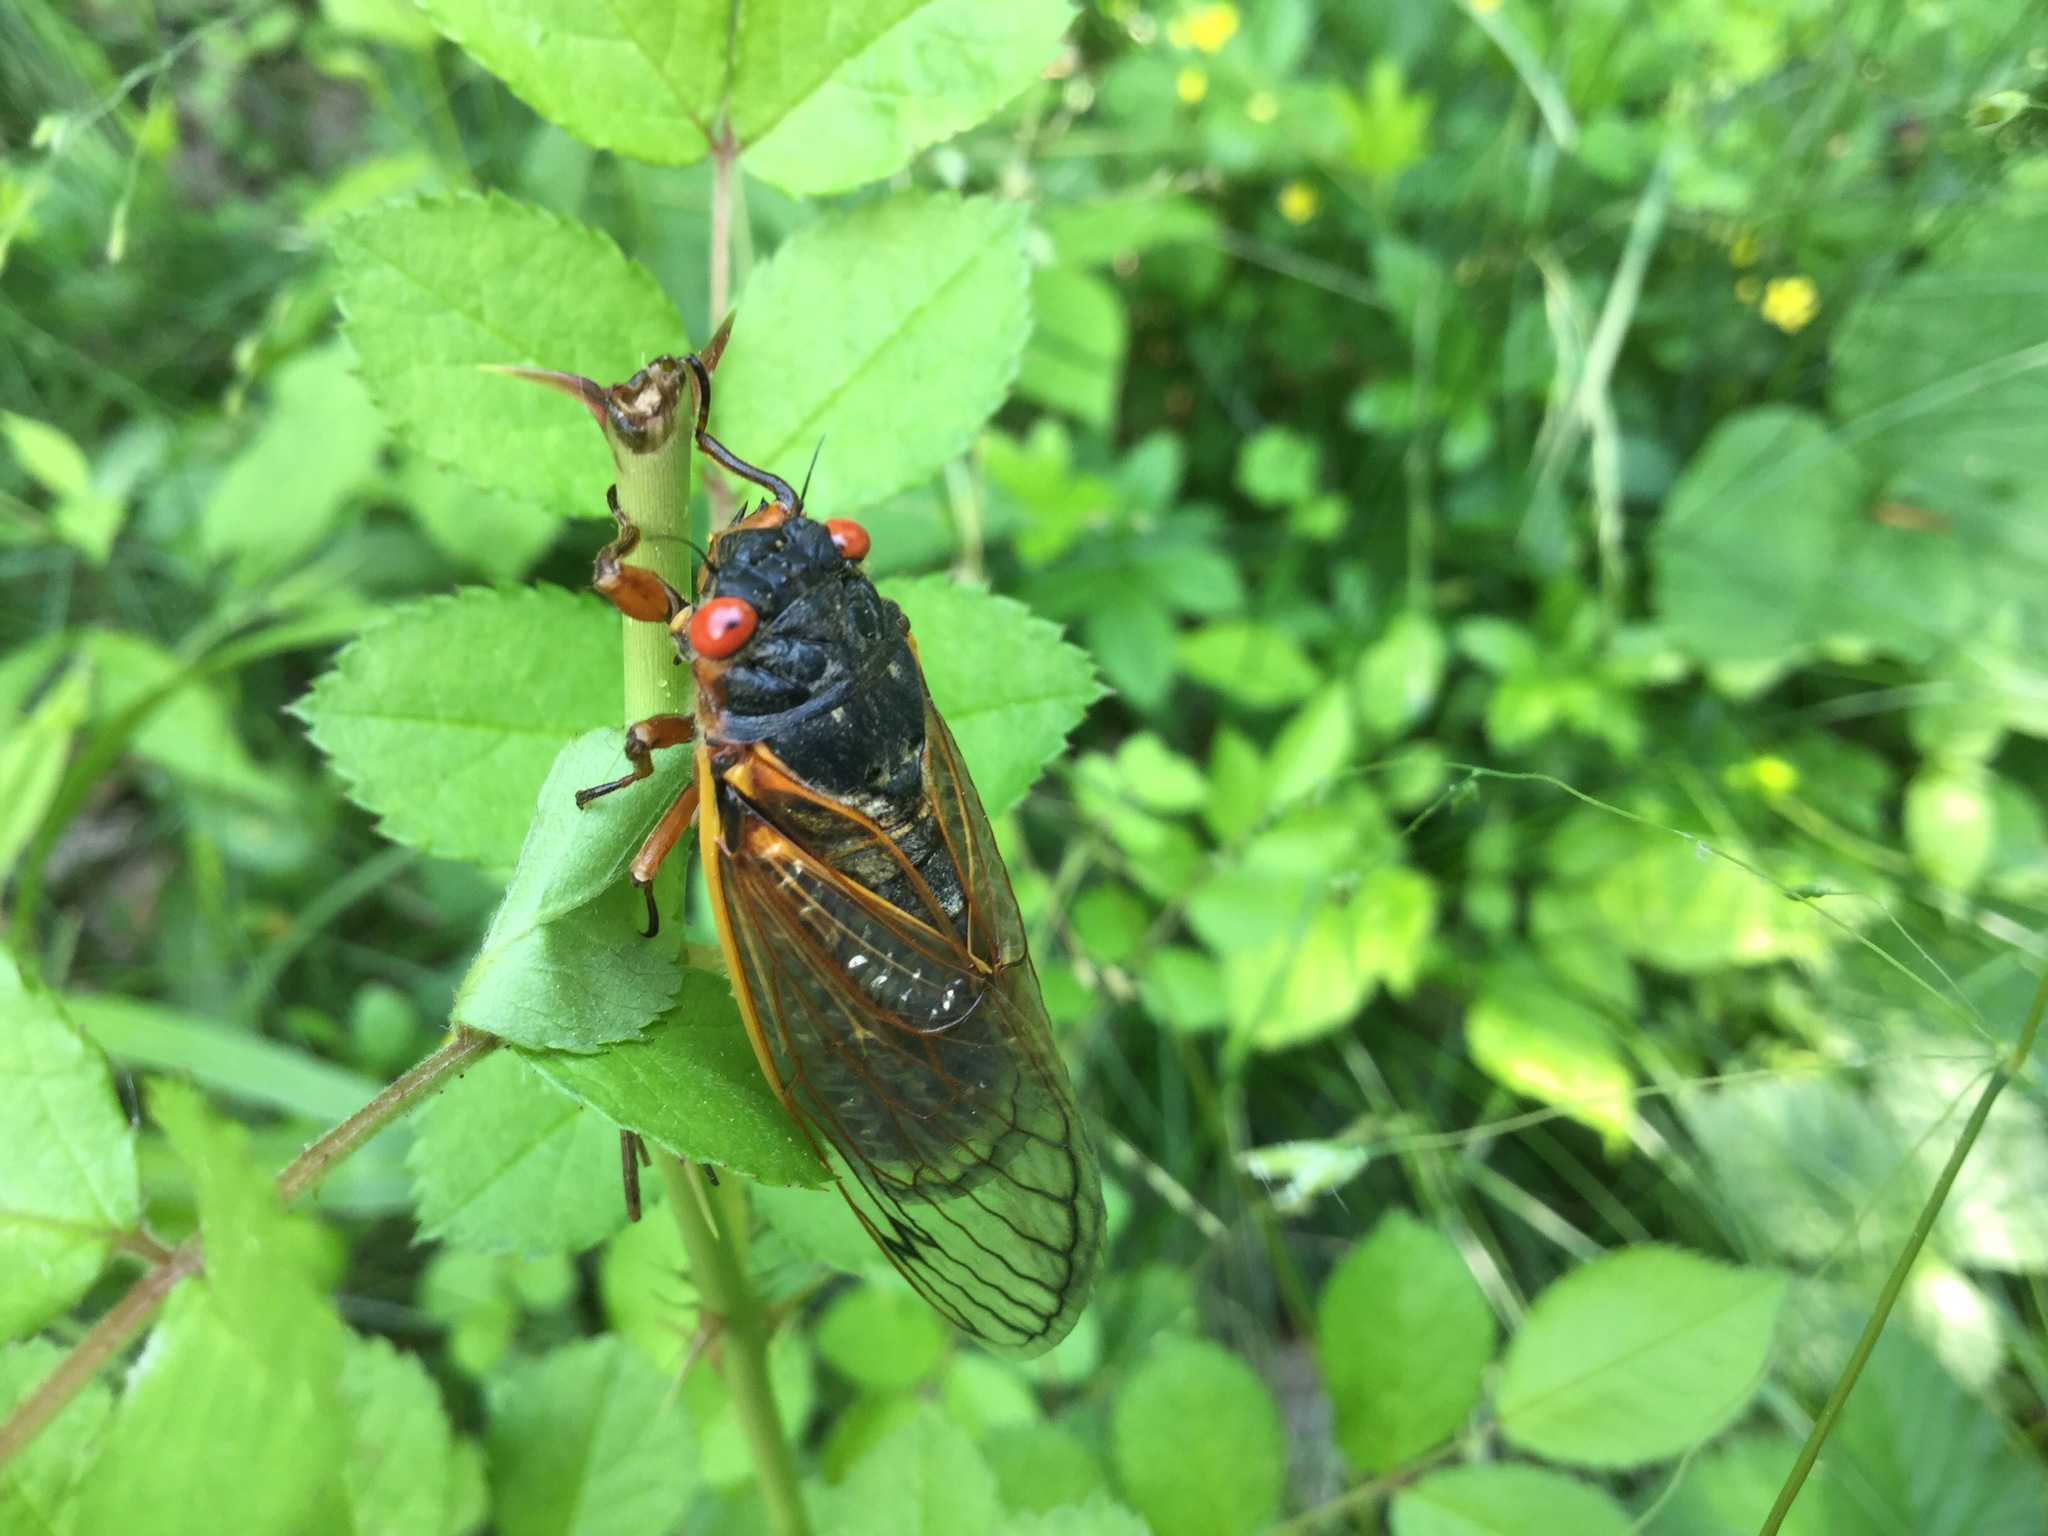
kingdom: Animalia
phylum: Arthropoda
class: Insecta
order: Hemiptera
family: Cicadidae
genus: Magicicada
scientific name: Magicicada septendecim
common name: Periodical cicada
